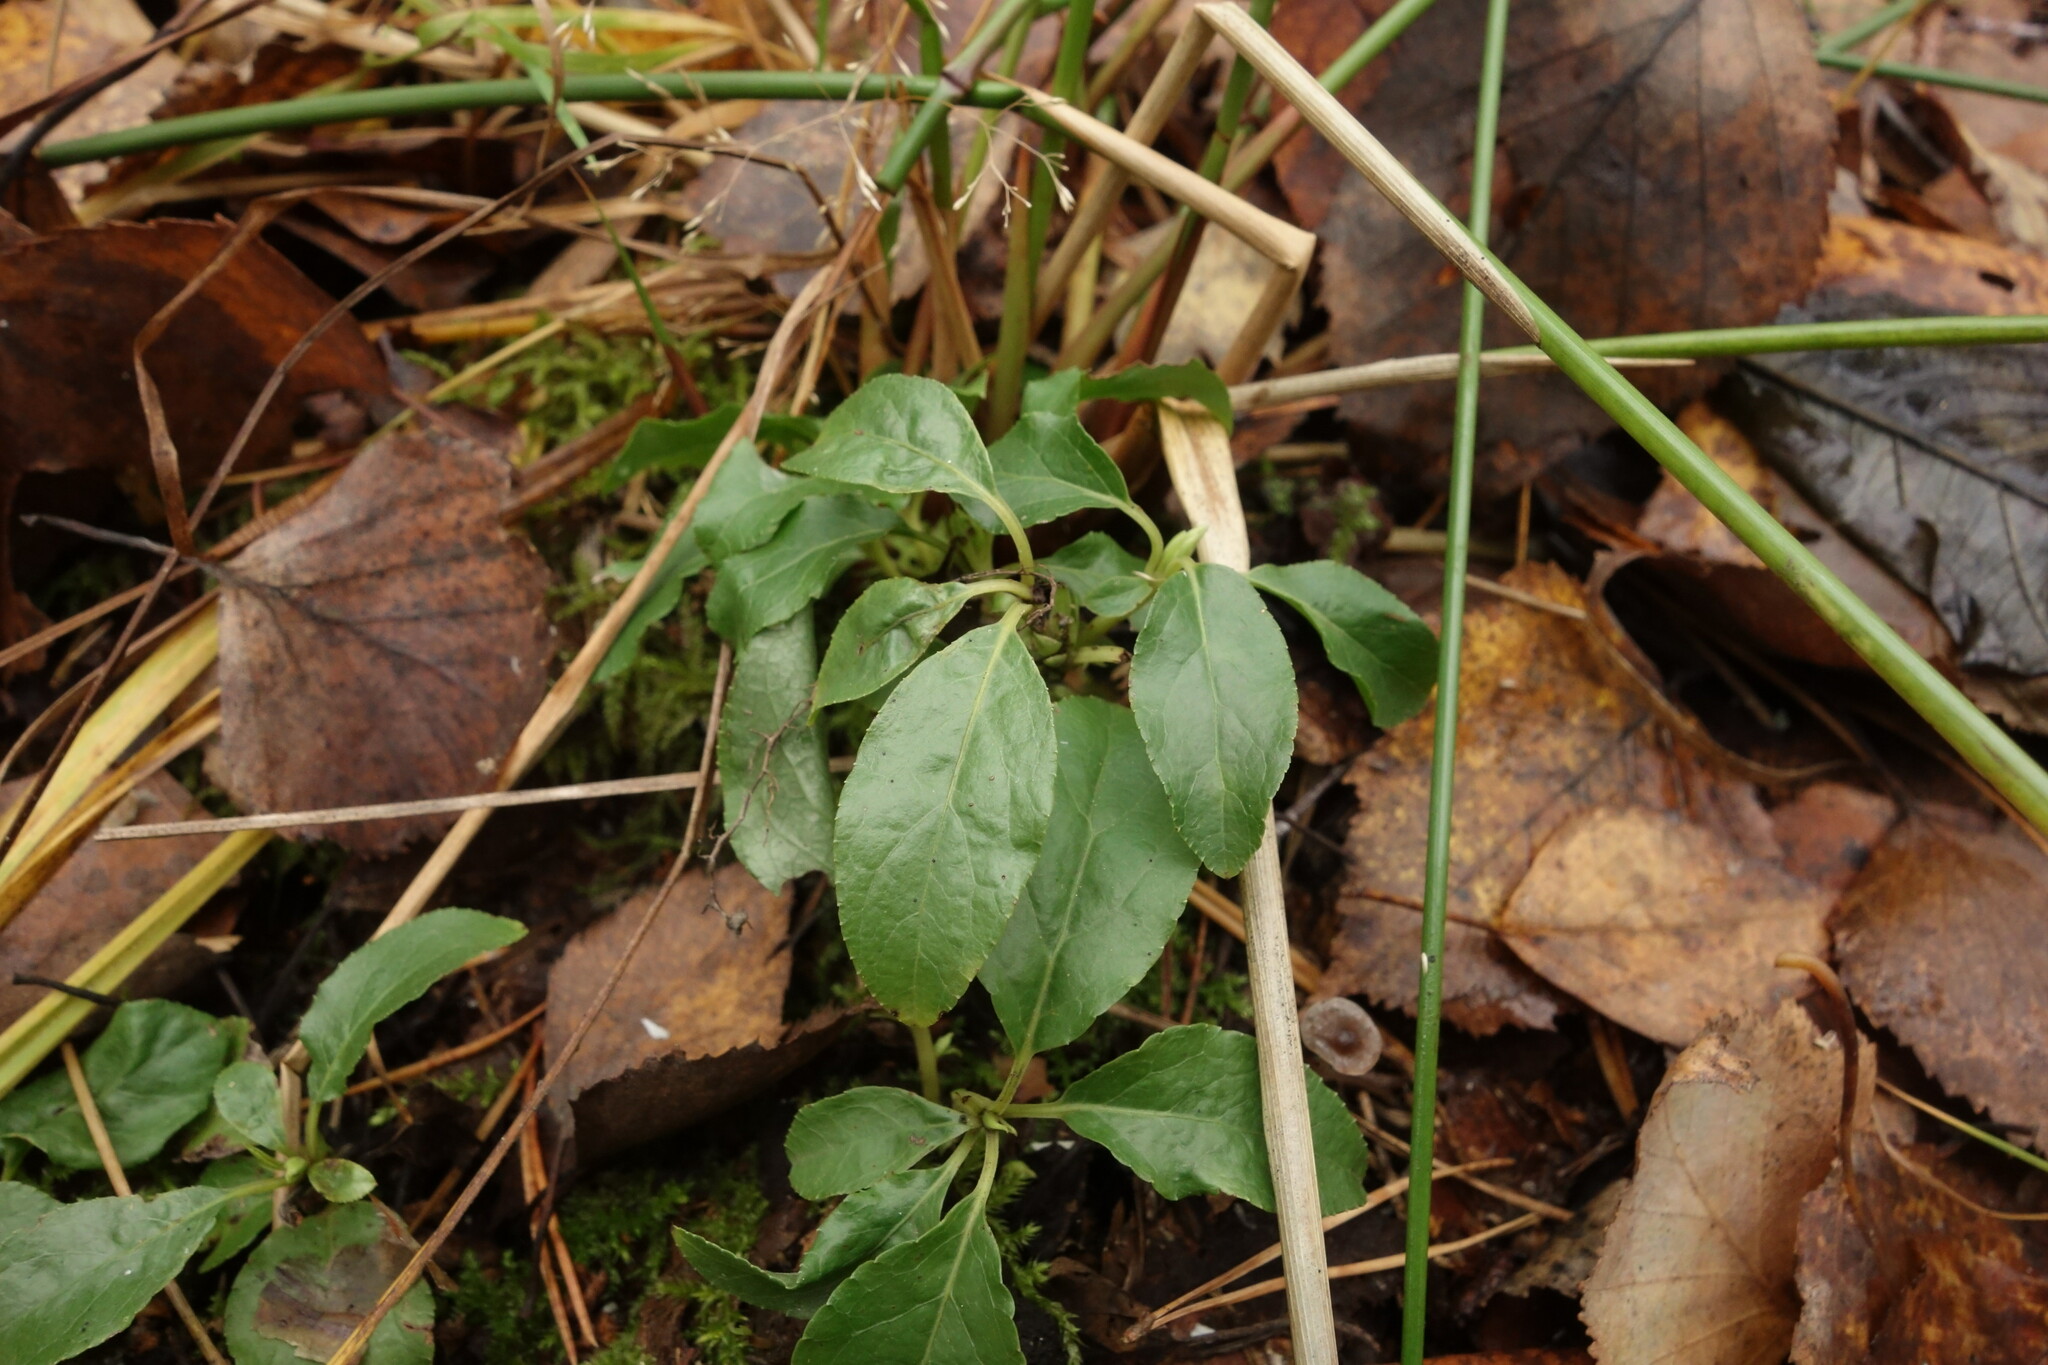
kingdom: Plantae
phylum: Tracheophyta
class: Magnoliopsida
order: Ericales
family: Ericaceae
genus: Orthilia
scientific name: Orthilia secunda
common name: One-sided orthilia
